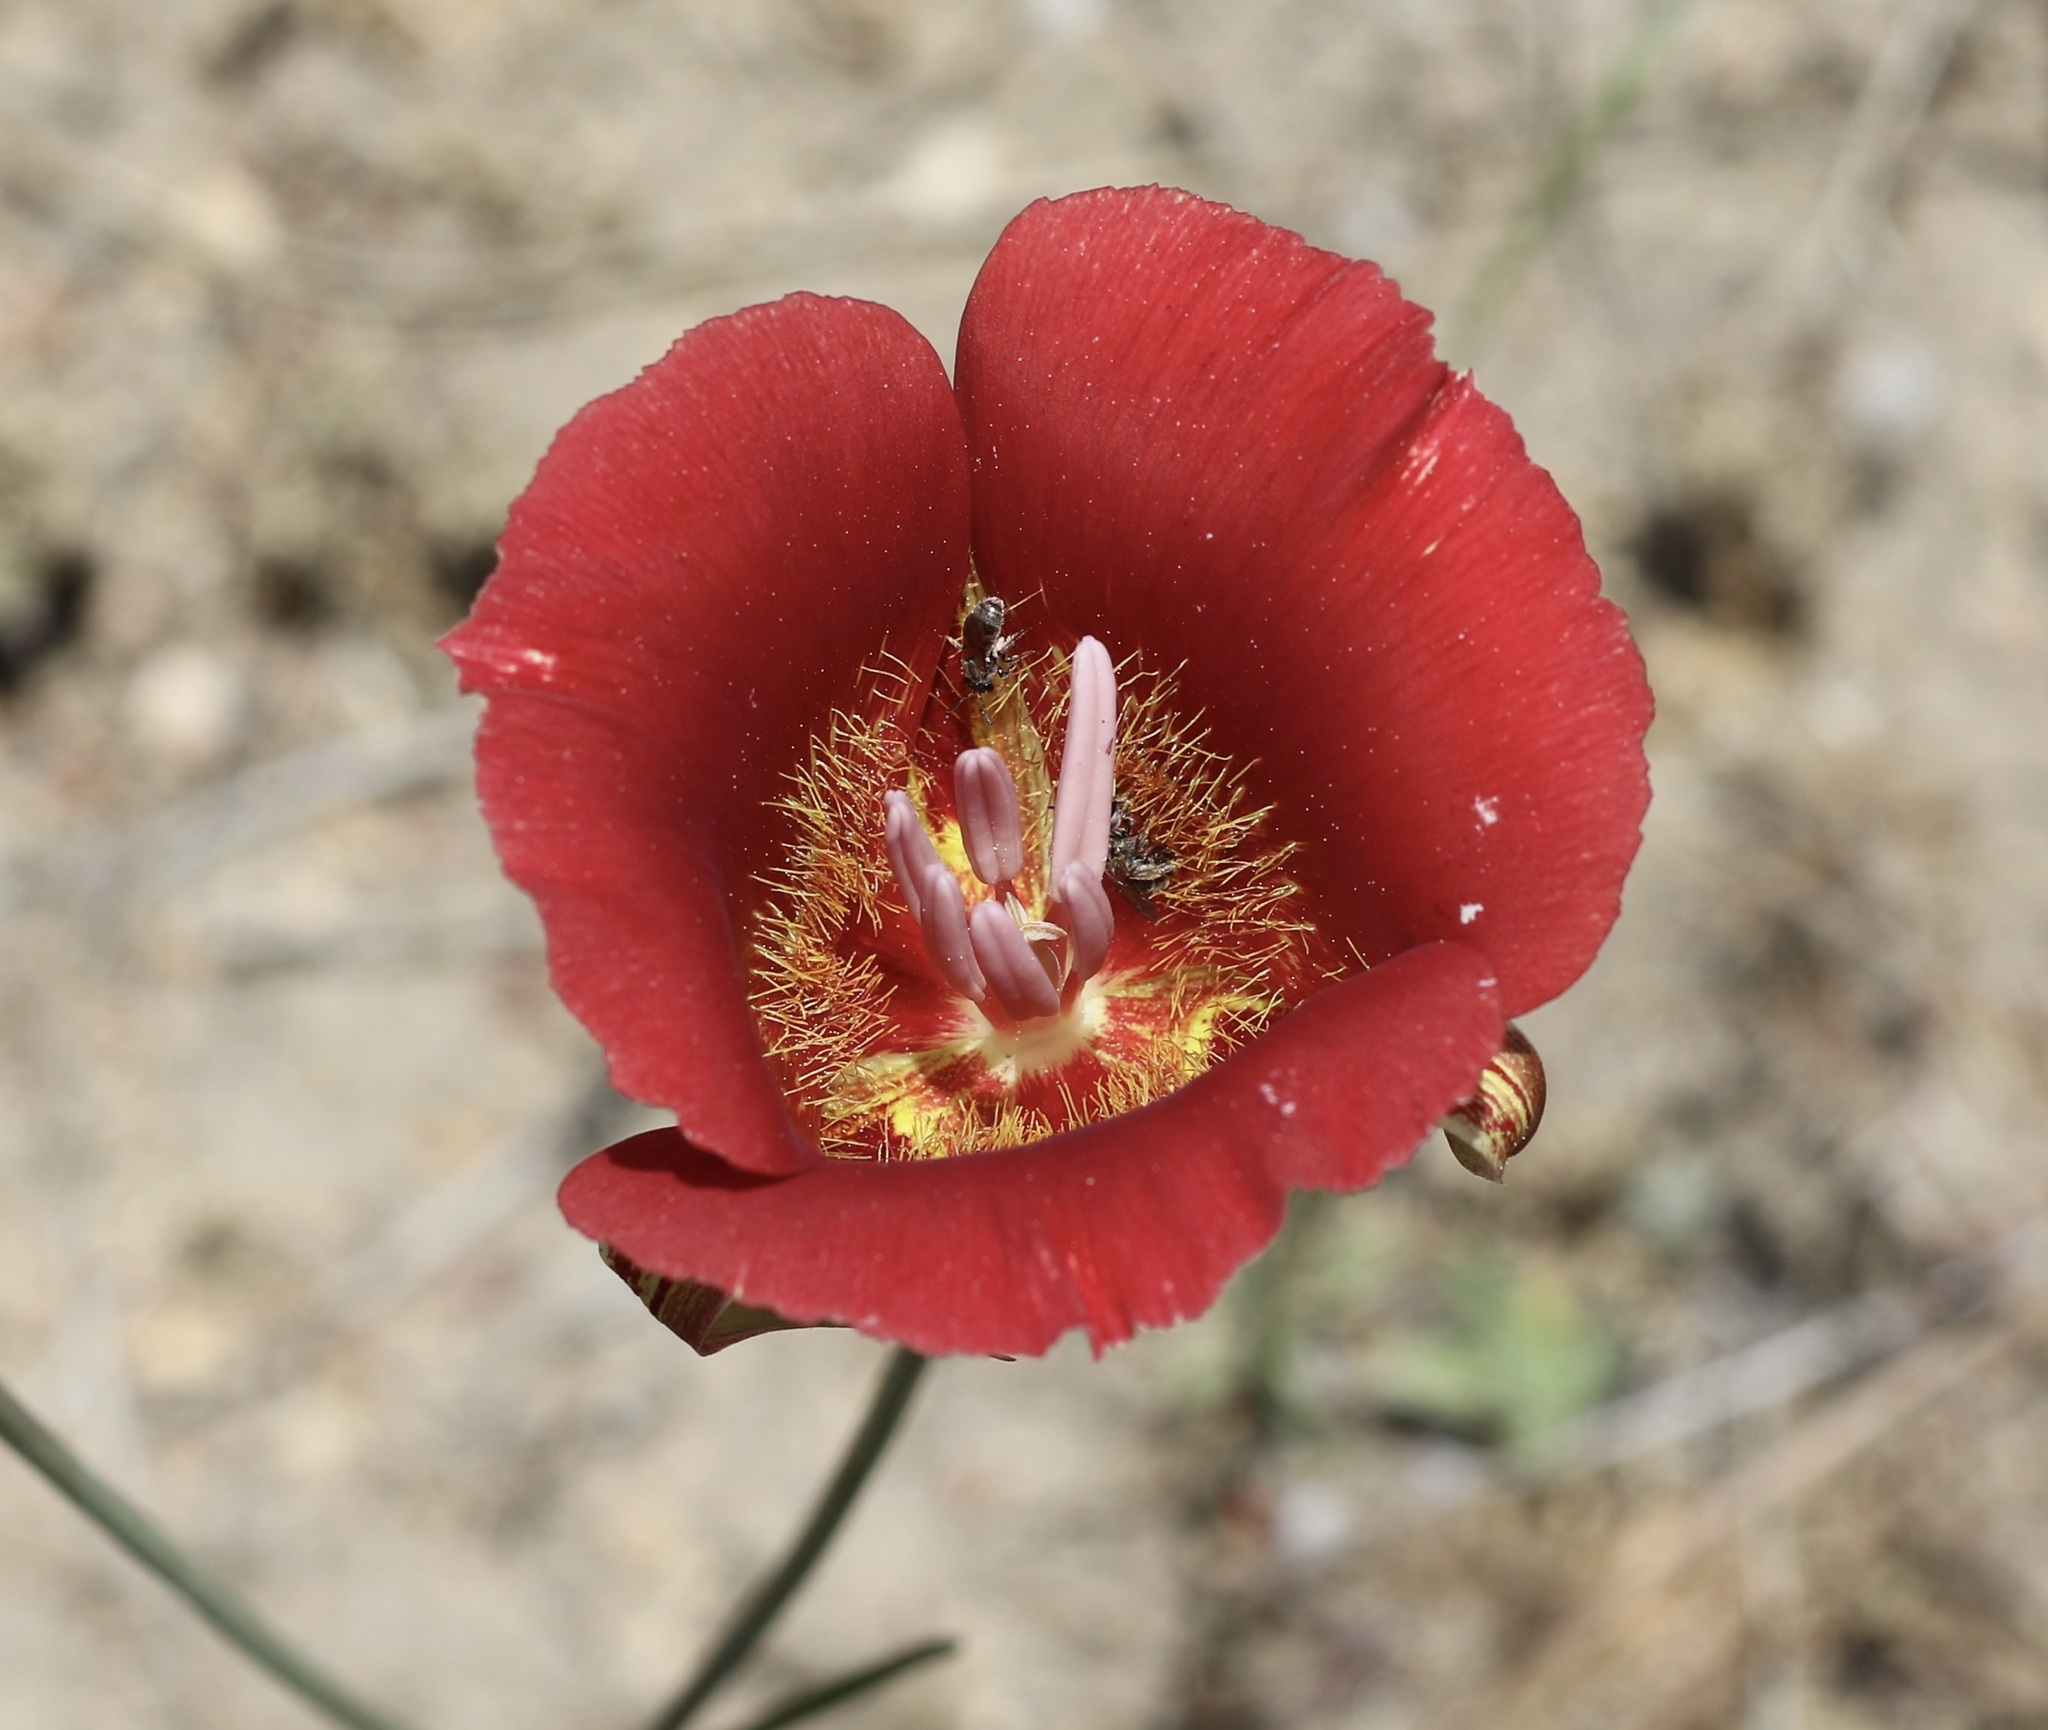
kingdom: Plantae
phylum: Tracheophyta
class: Liliopsida
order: Liliales
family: Liliaceae
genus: Calochortus
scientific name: Calochortus venustus
